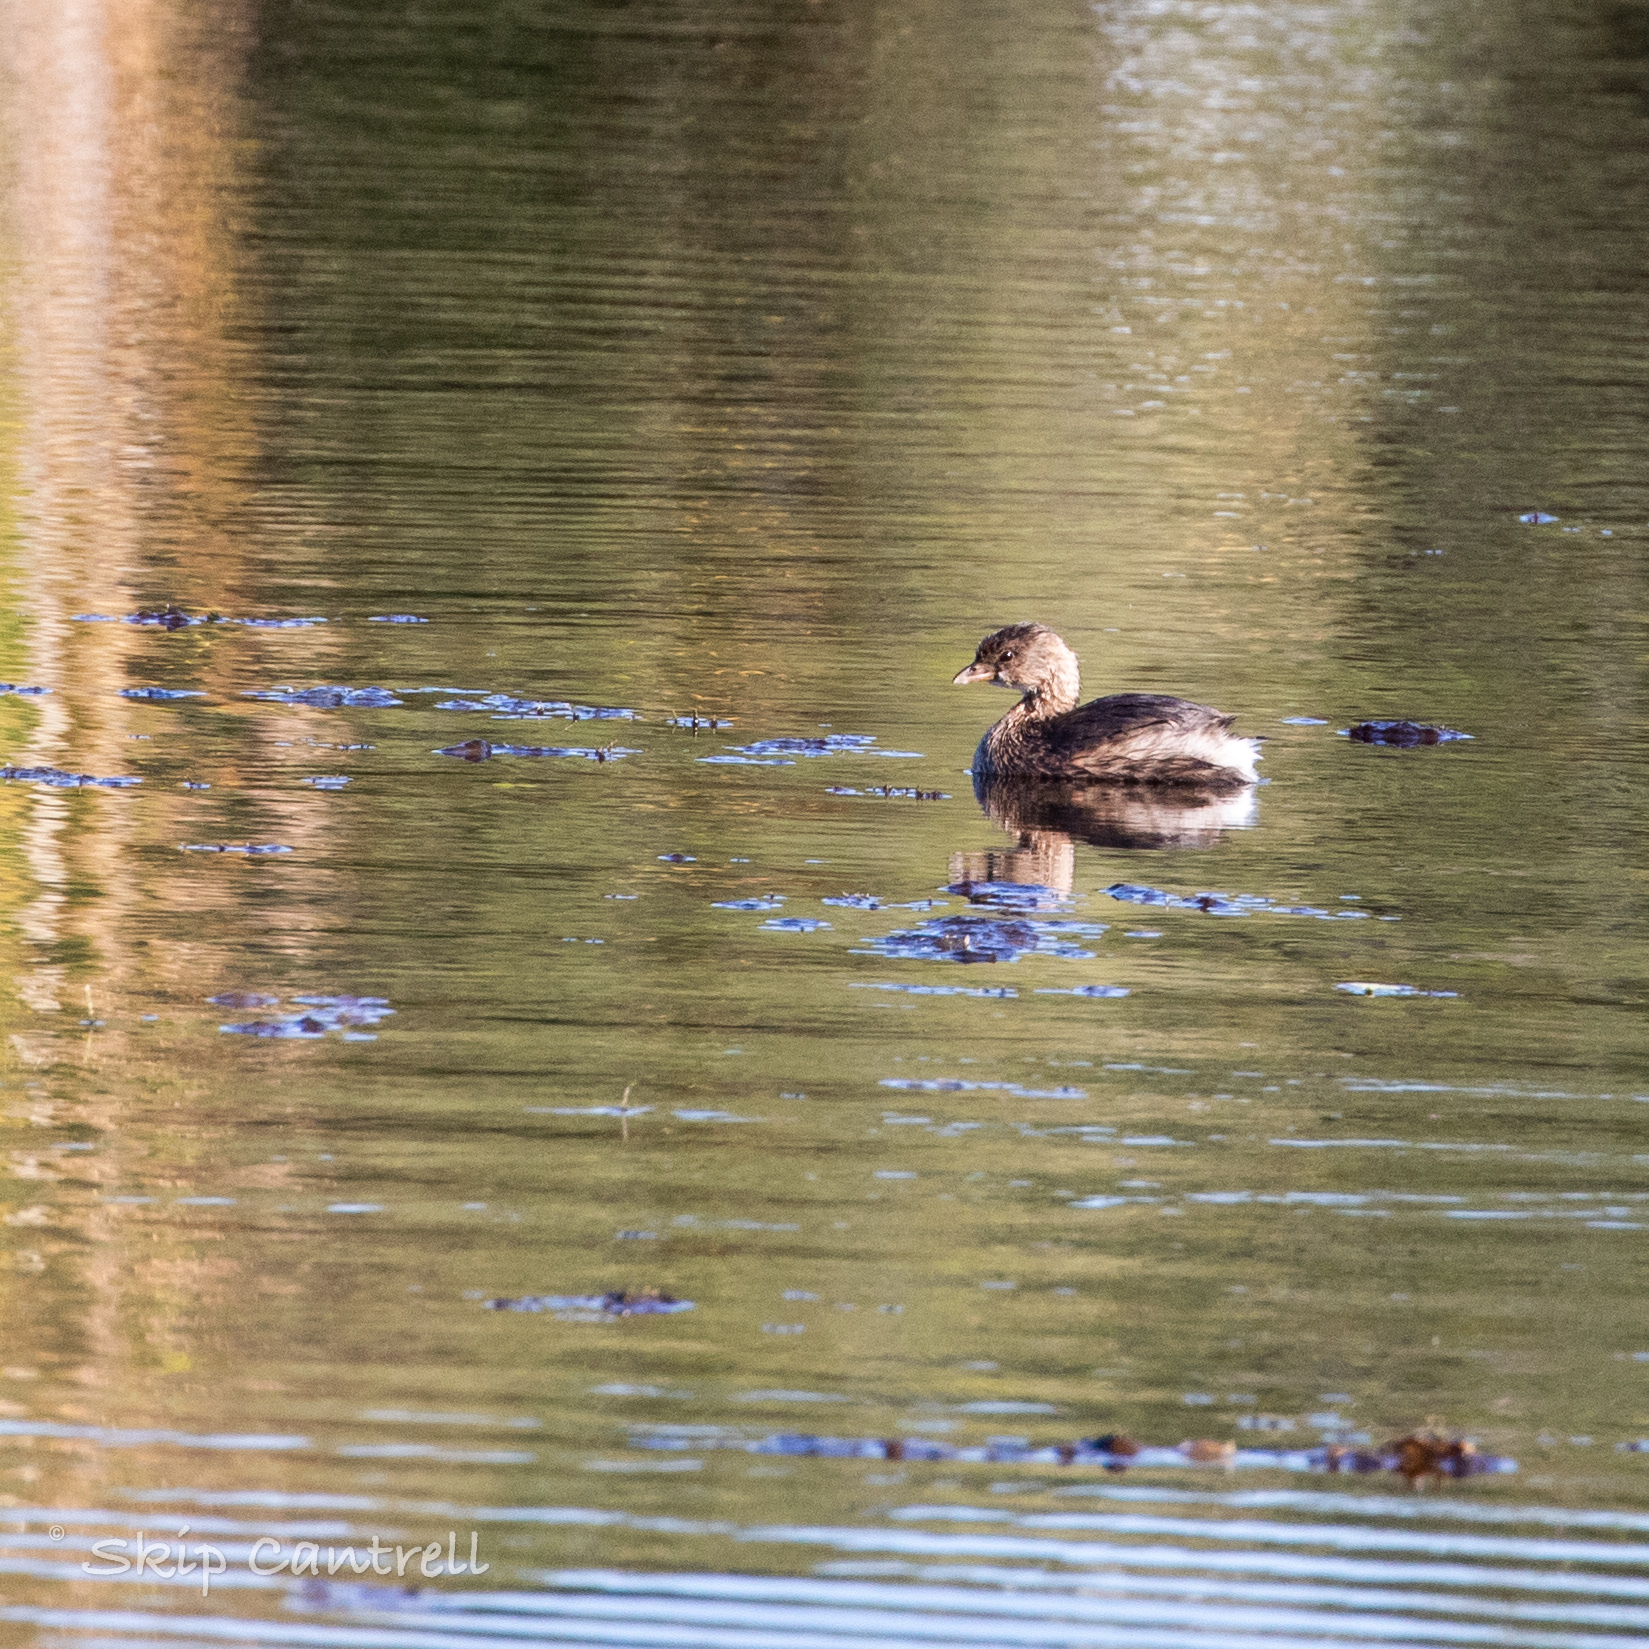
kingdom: Animalia
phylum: Chordata
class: Aves
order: Podicipediformes
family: Podicipedidae
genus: Podilymbus
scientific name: Podilymbus podiceps
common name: Pied-billed grebe
